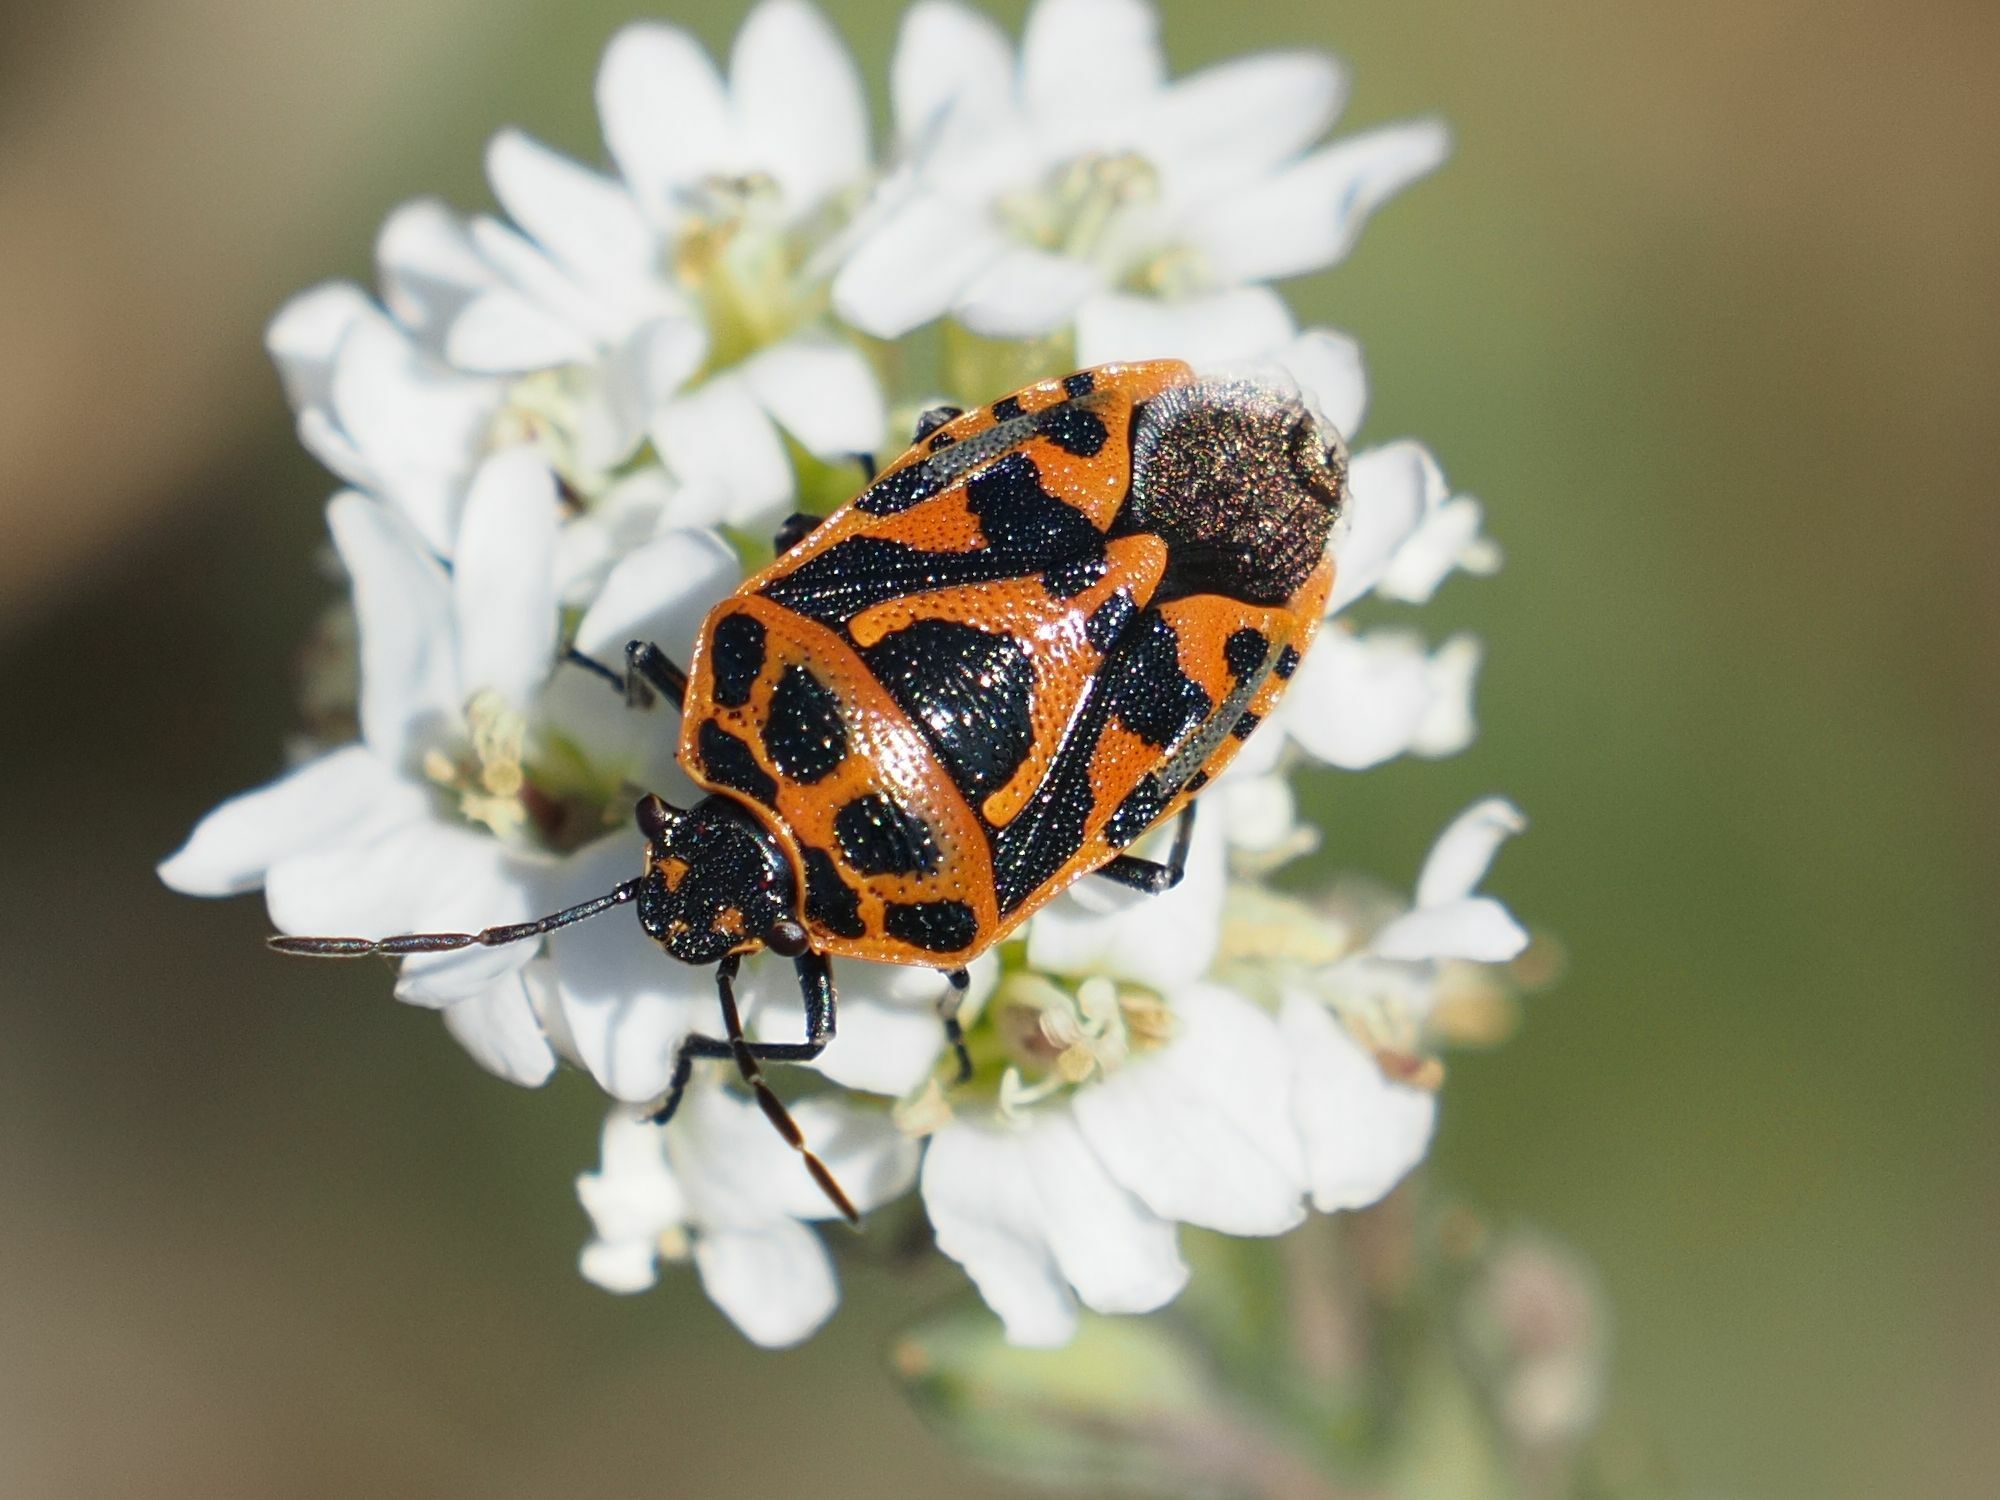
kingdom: Animalia
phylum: Arthropoda
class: Insecta
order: Hemiptera
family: Pentatomidae
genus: Eurydema
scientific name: Eurydema ornata
